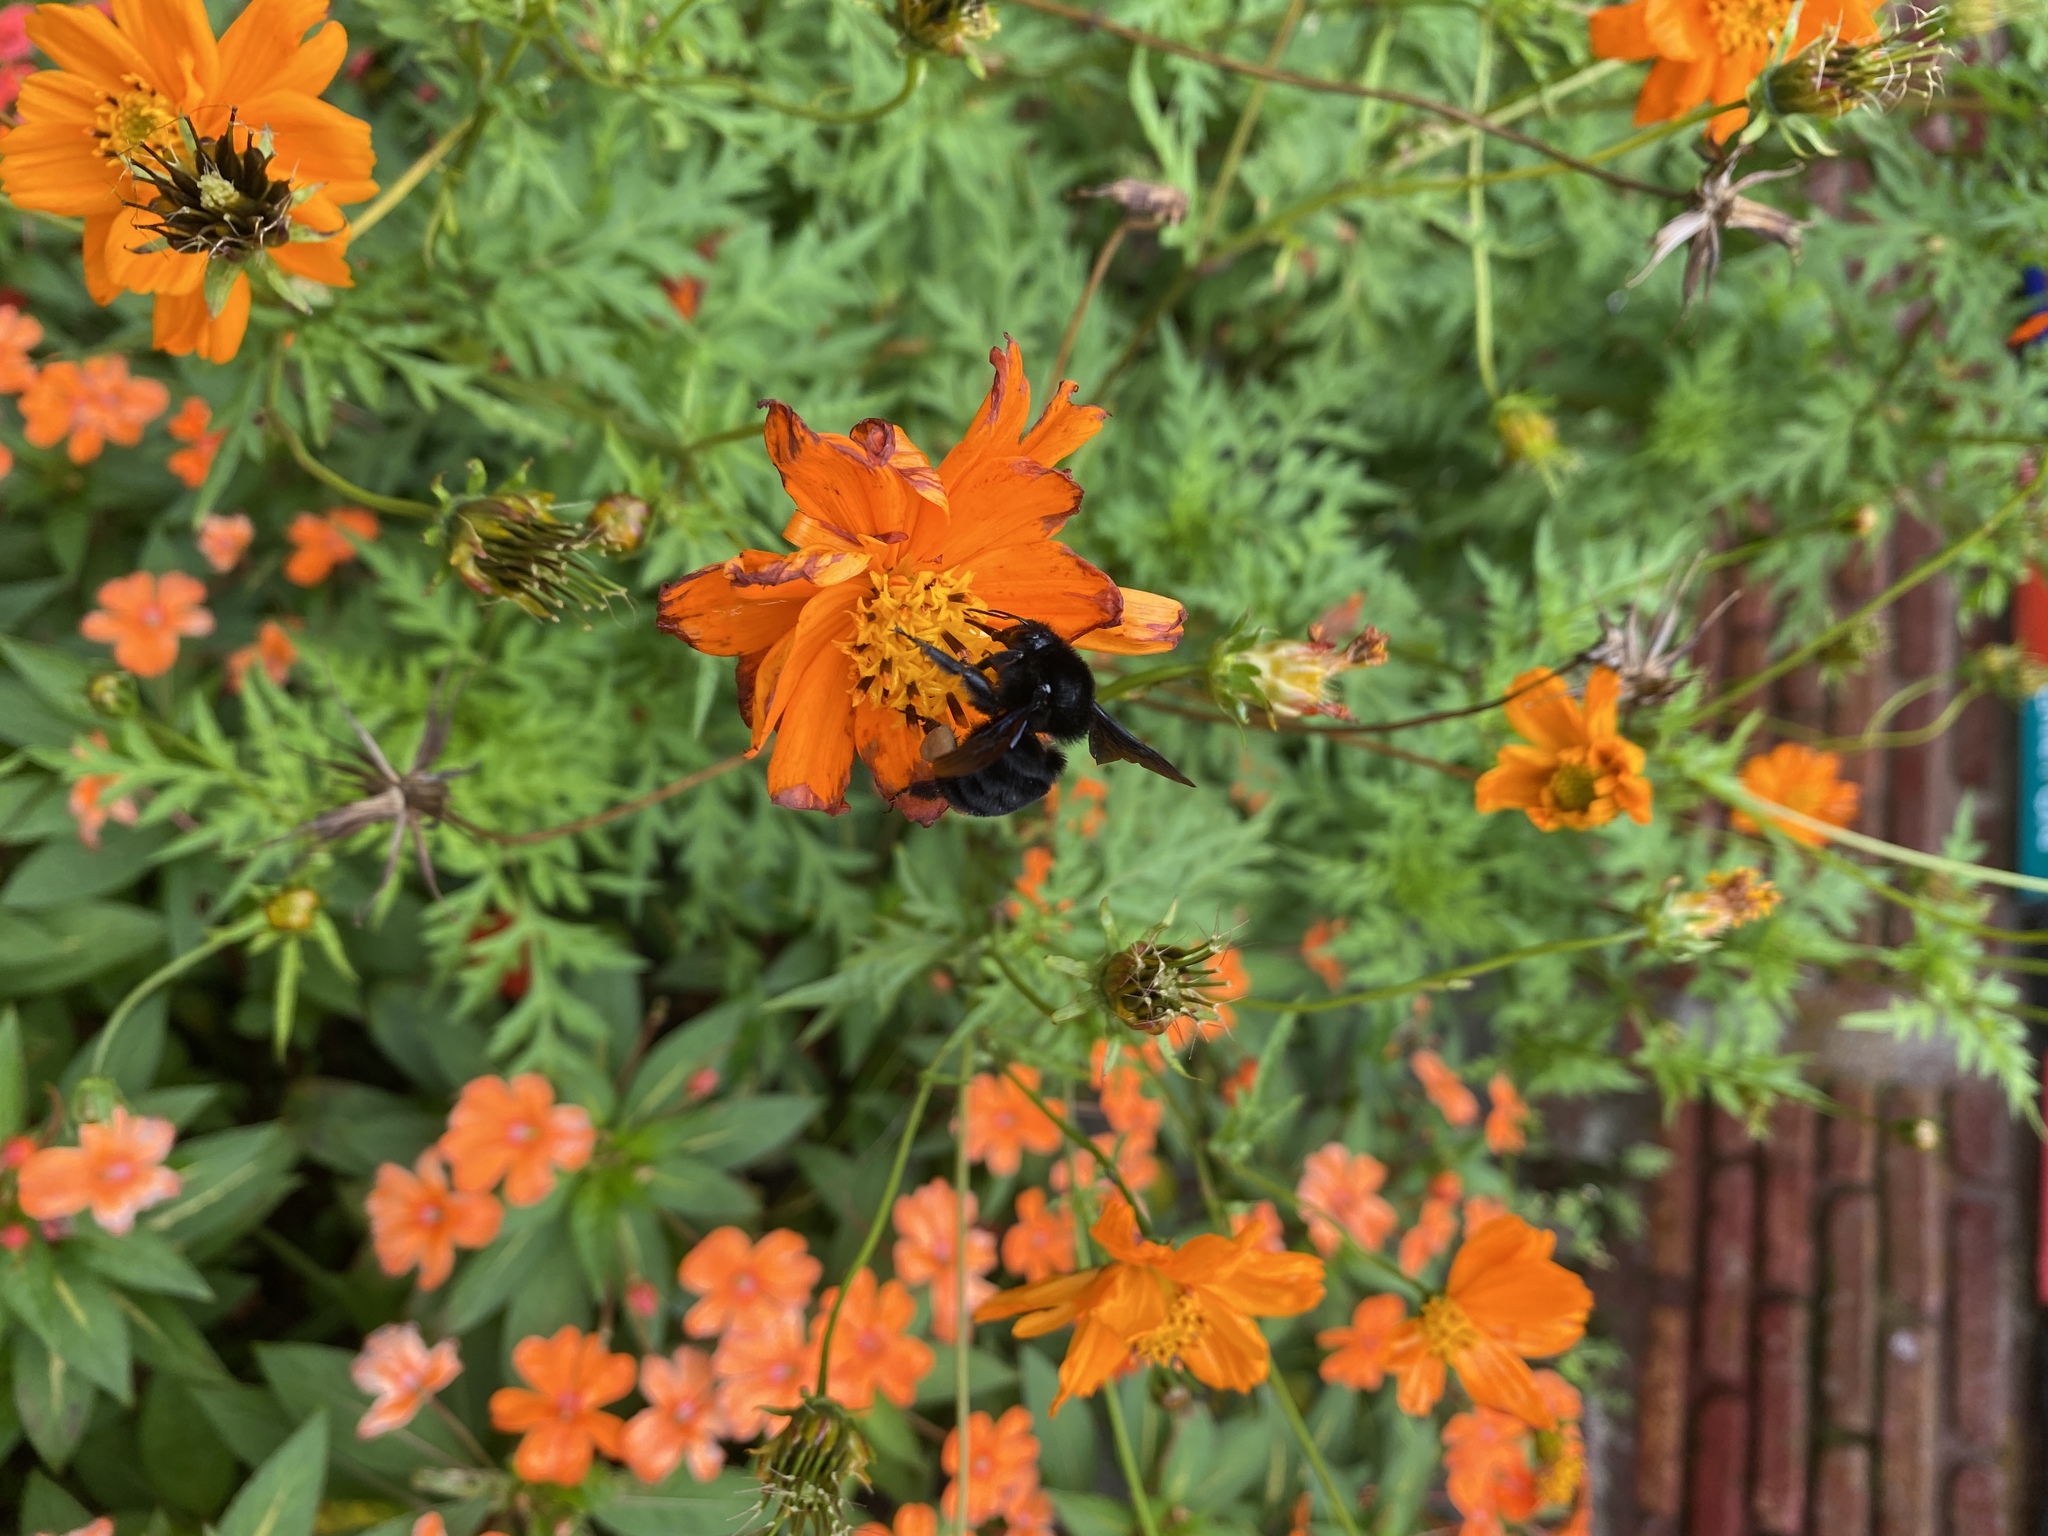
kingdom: Animalia
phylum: Arthropoda
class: Insecta
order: Hymenoptera
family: Apidae
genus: Bombus
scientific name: Bombus pullatus
